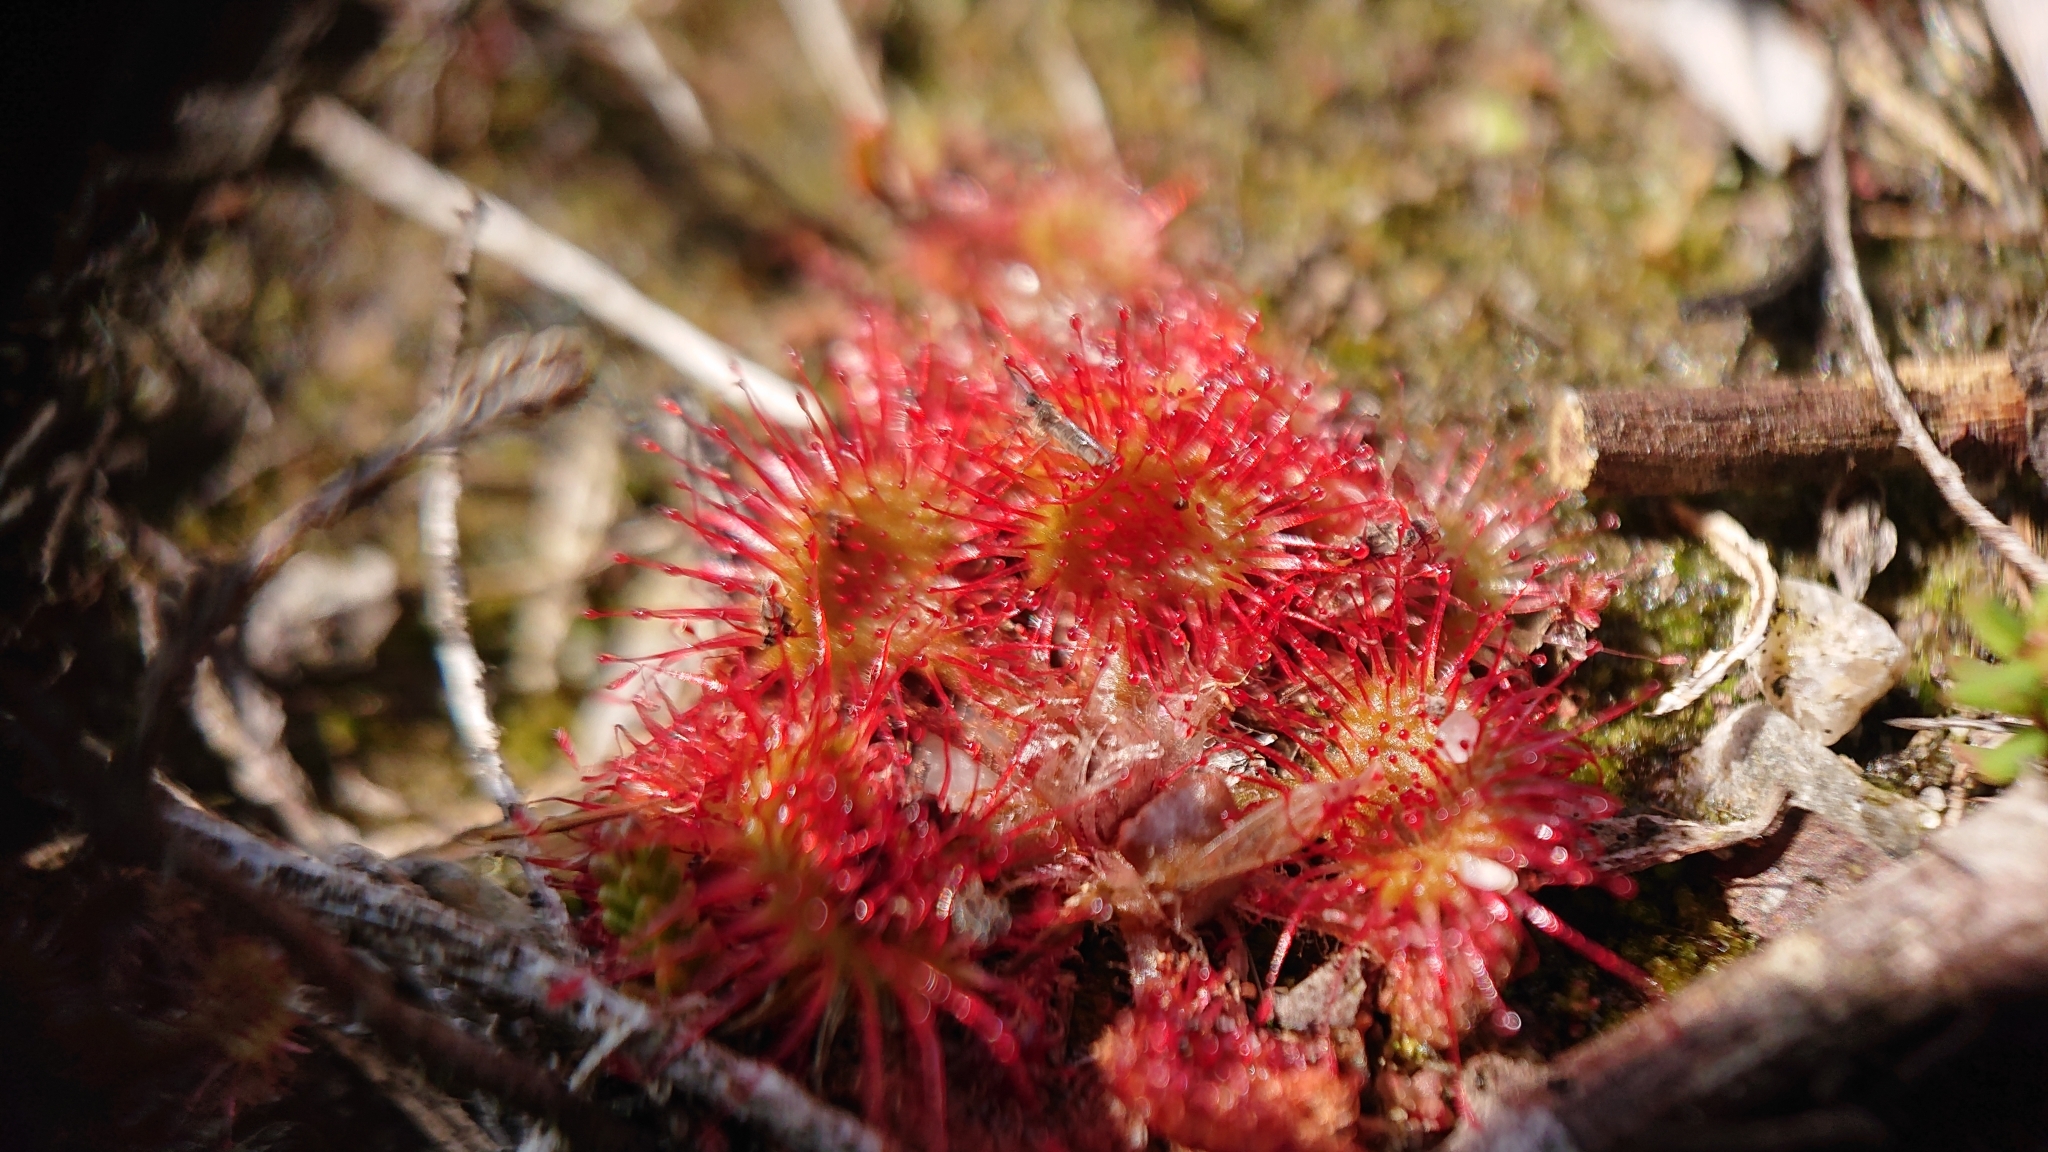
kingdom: Plantae
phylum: Tracheophyta
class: Magnoliopsida
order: Caryophyllales
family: Droseraceae
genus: Drosera
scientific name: Drosera rotundifolia
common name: Round-leaved sundew
